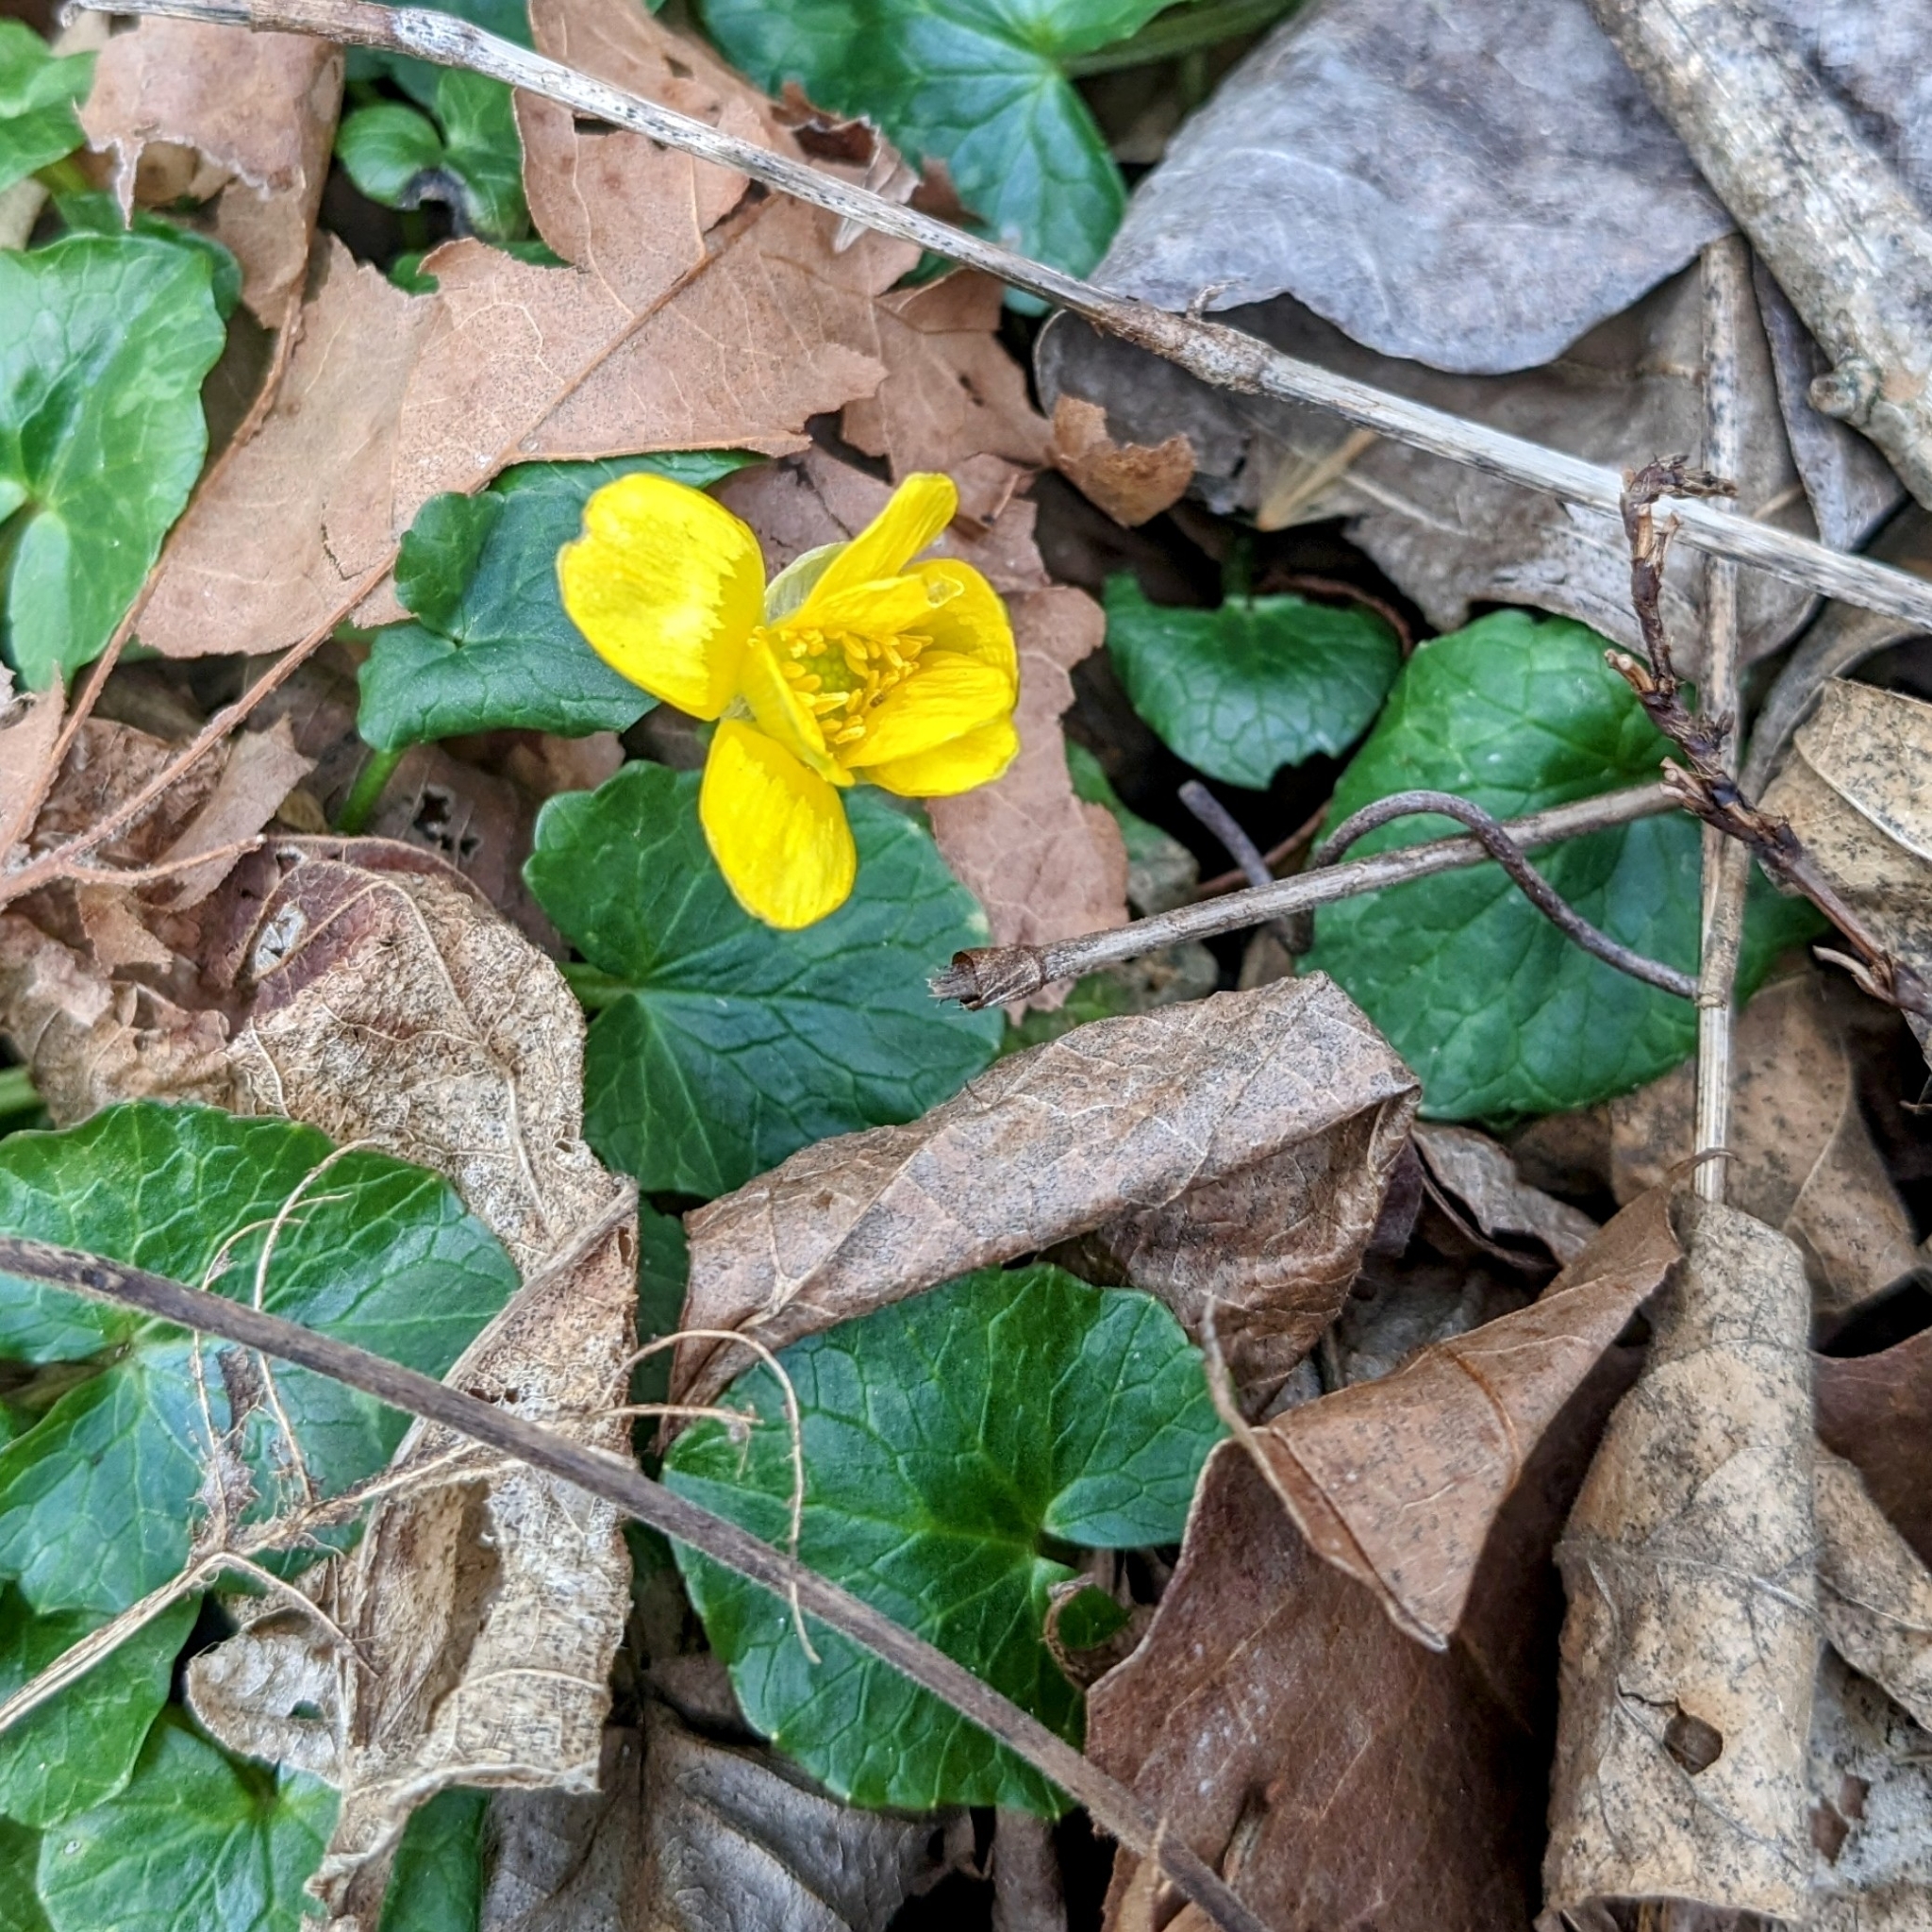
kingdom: Plantae
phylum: Tracheophyta
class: Magnoliopsida
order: Ranunculales
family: Ranunculaceae
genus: Ficaria
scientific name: Ficaria verna
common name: Lesser celandine
